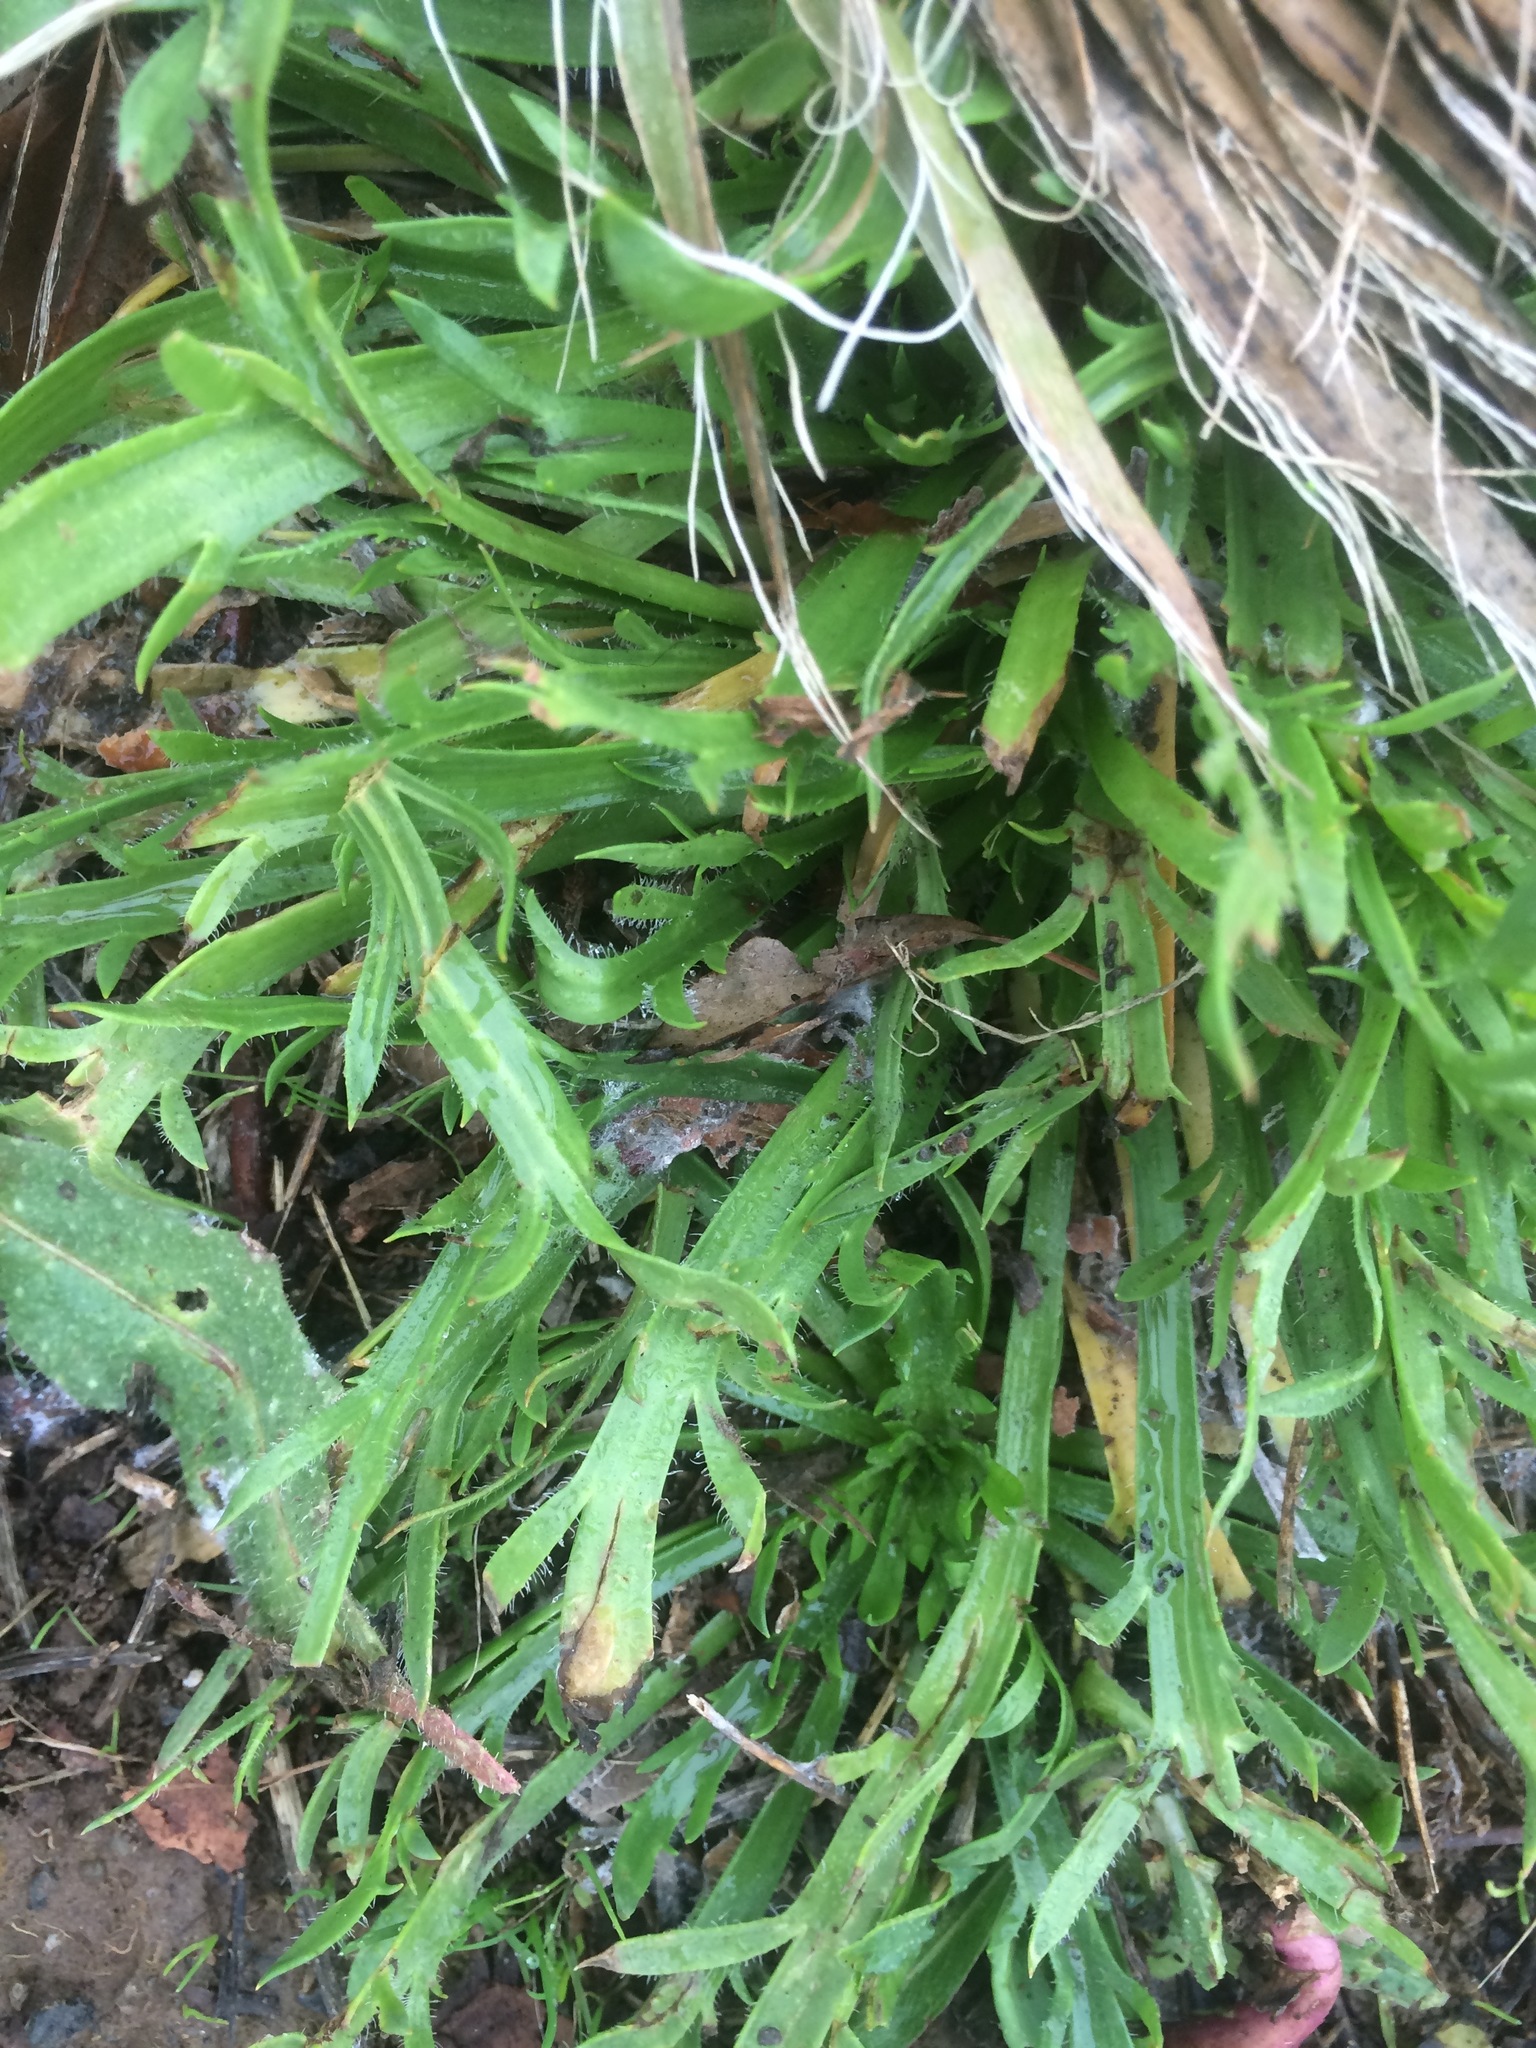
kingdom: Plantae
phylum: Tracheophyta
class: Magnoliopsida
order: Lamiales
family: Plantaginaceae
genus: Plantago
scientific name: Plantago coronopus
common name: Buck's-horn plantain
